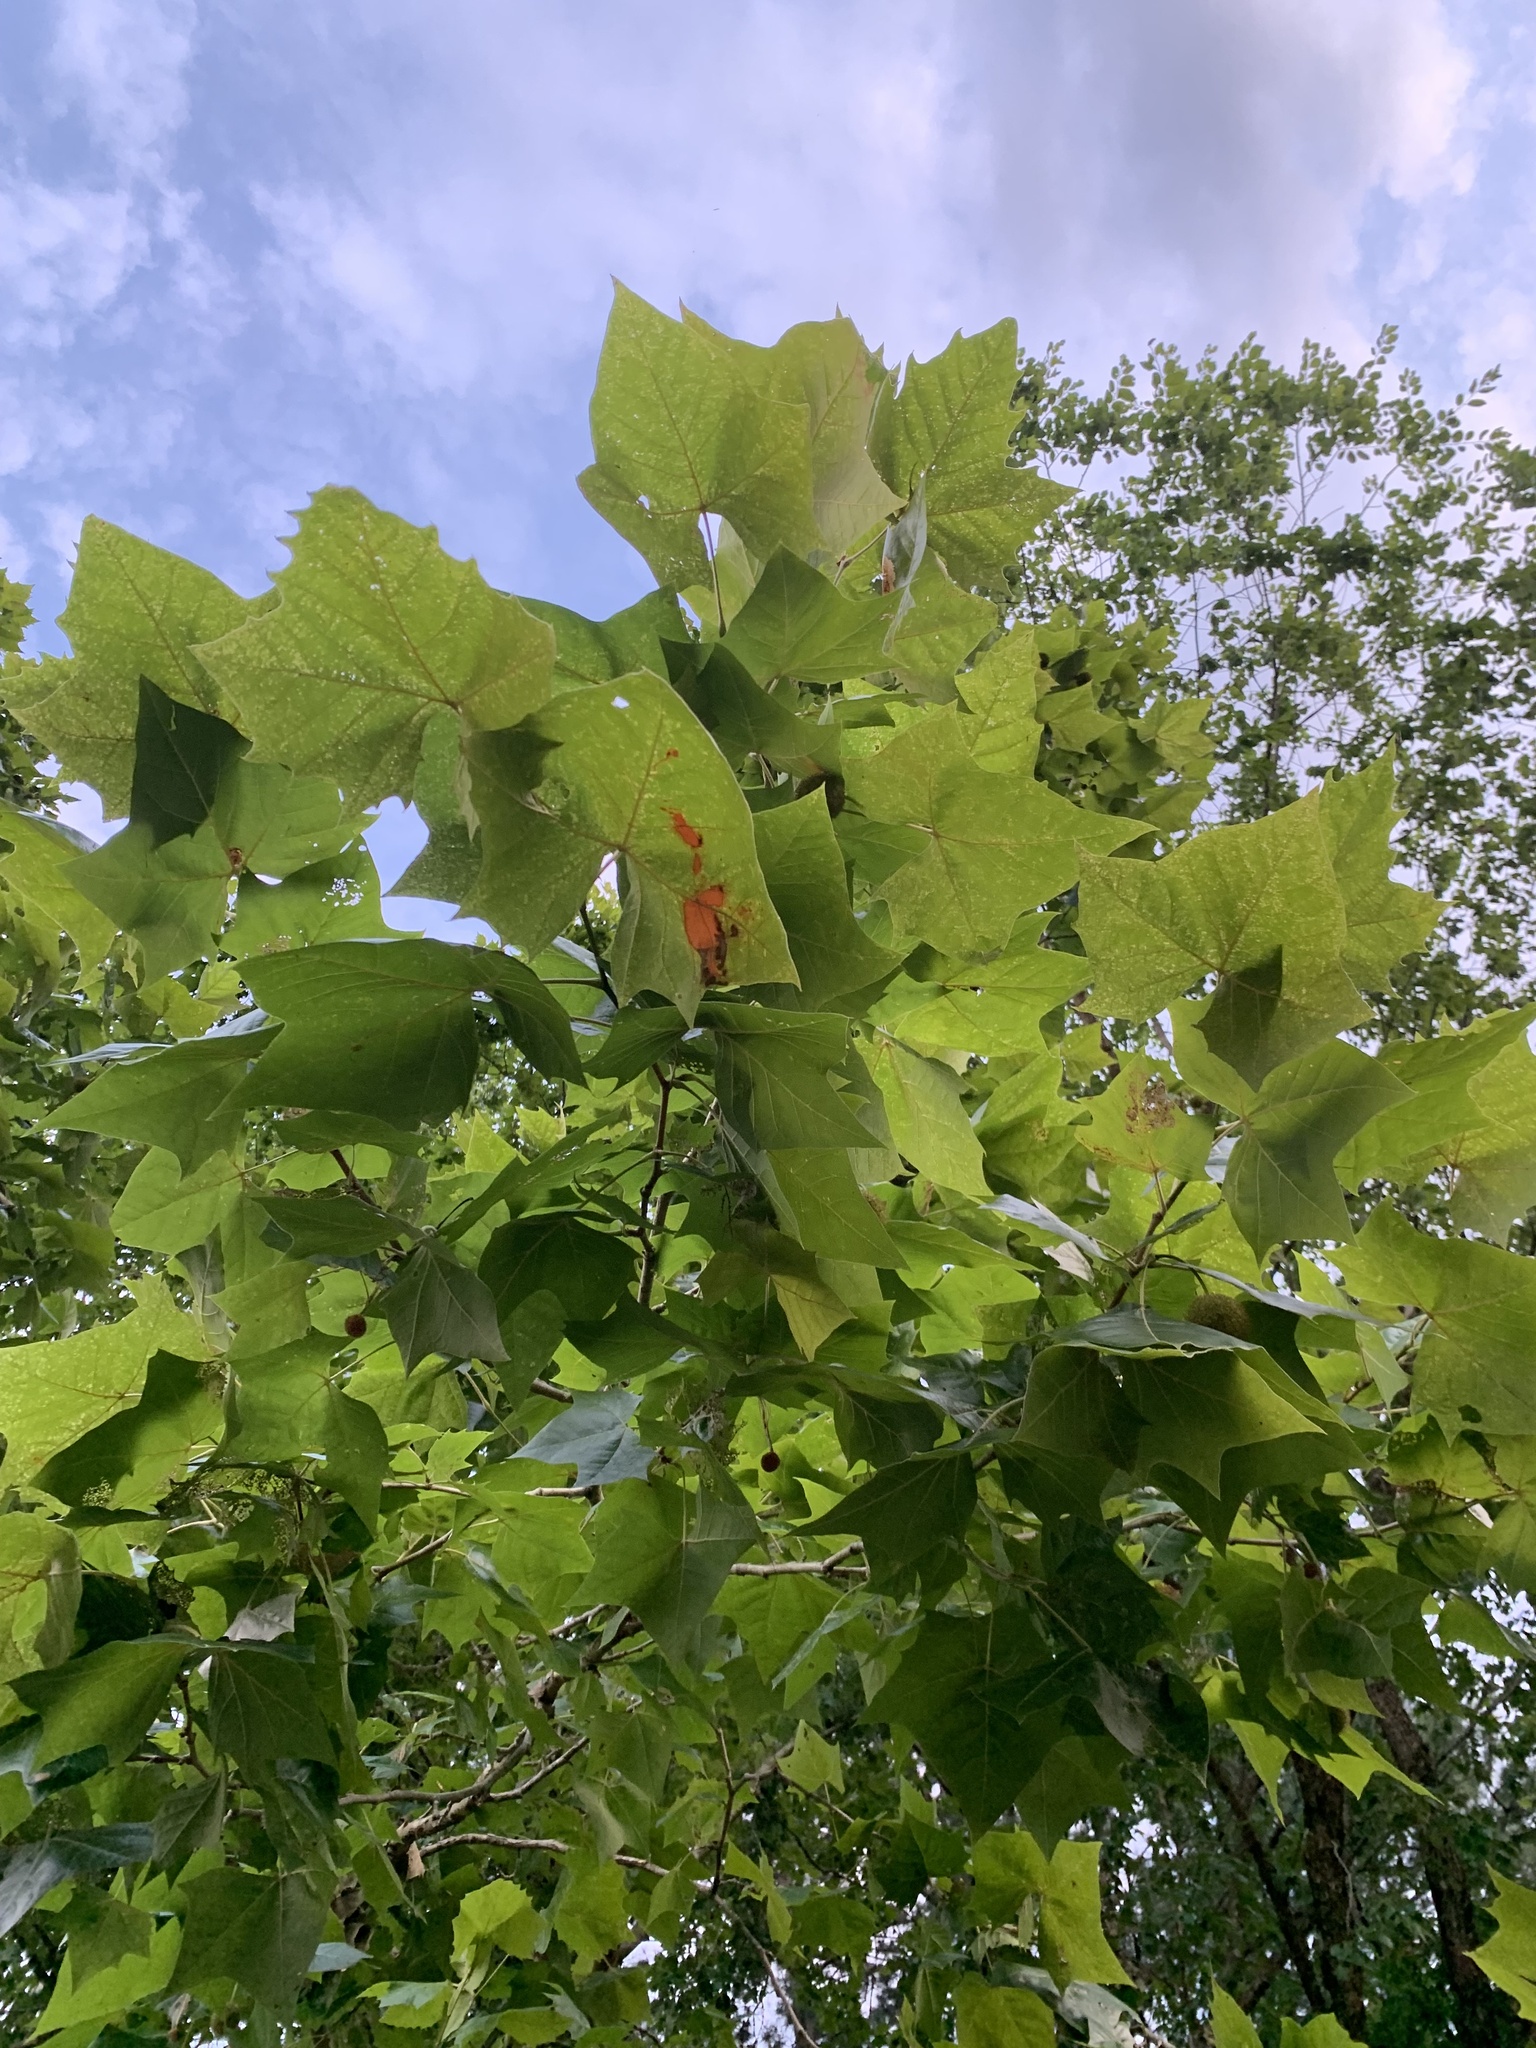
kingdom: Plantae
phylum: Tracheophyta
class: Magnoliopsida
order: Proteales
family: Platanaceae
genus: Platanus
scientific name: Platanus occidentalis
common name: American sycamore
